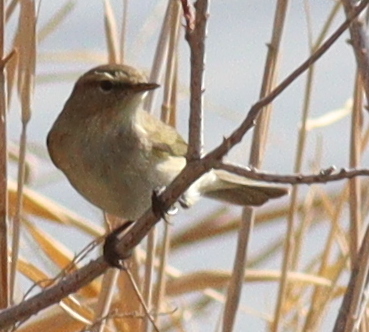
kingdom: Animalia
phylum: Chordata
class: Aves
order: Passeriformes
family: Phylloscopidae
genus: Phylloscopus
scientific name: Phylloscopus collybita
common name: Common chiffchaff
